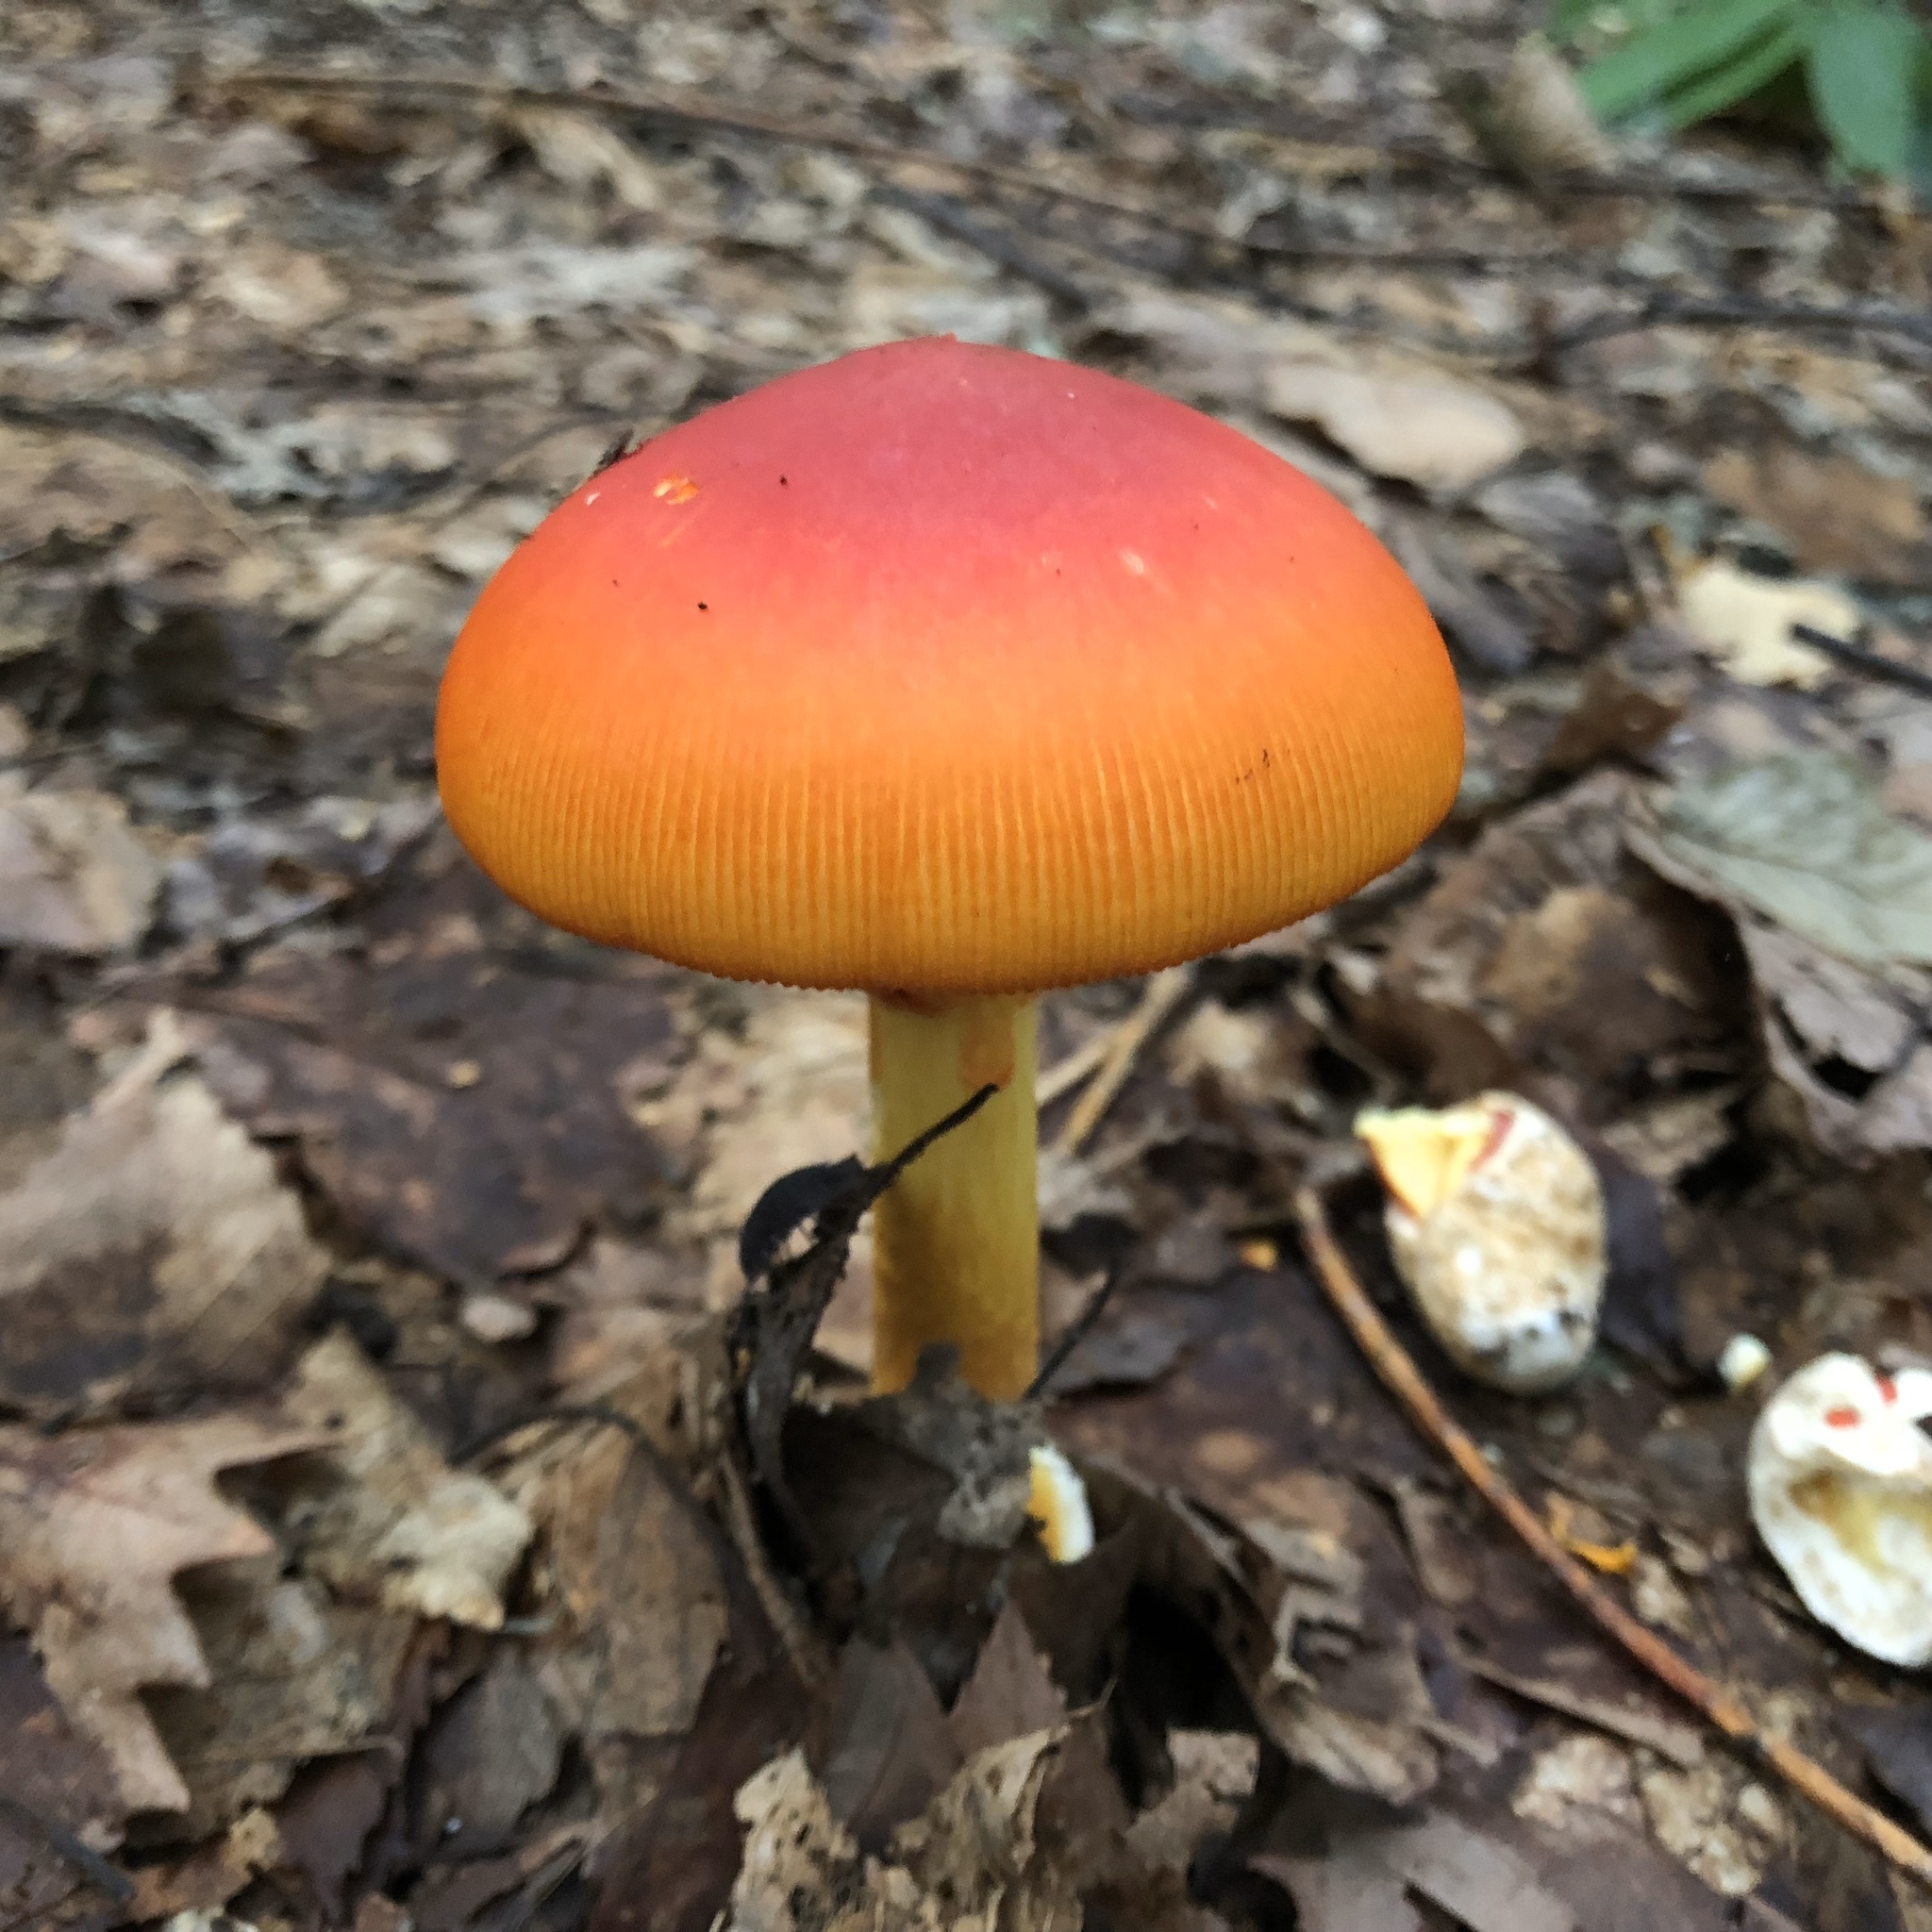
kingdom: Fungi
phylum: Basidiomycota
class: Agaricomycetes
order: Agaricales
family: Amanitaceae
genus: Amanita
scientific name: Amanita caesareoides
